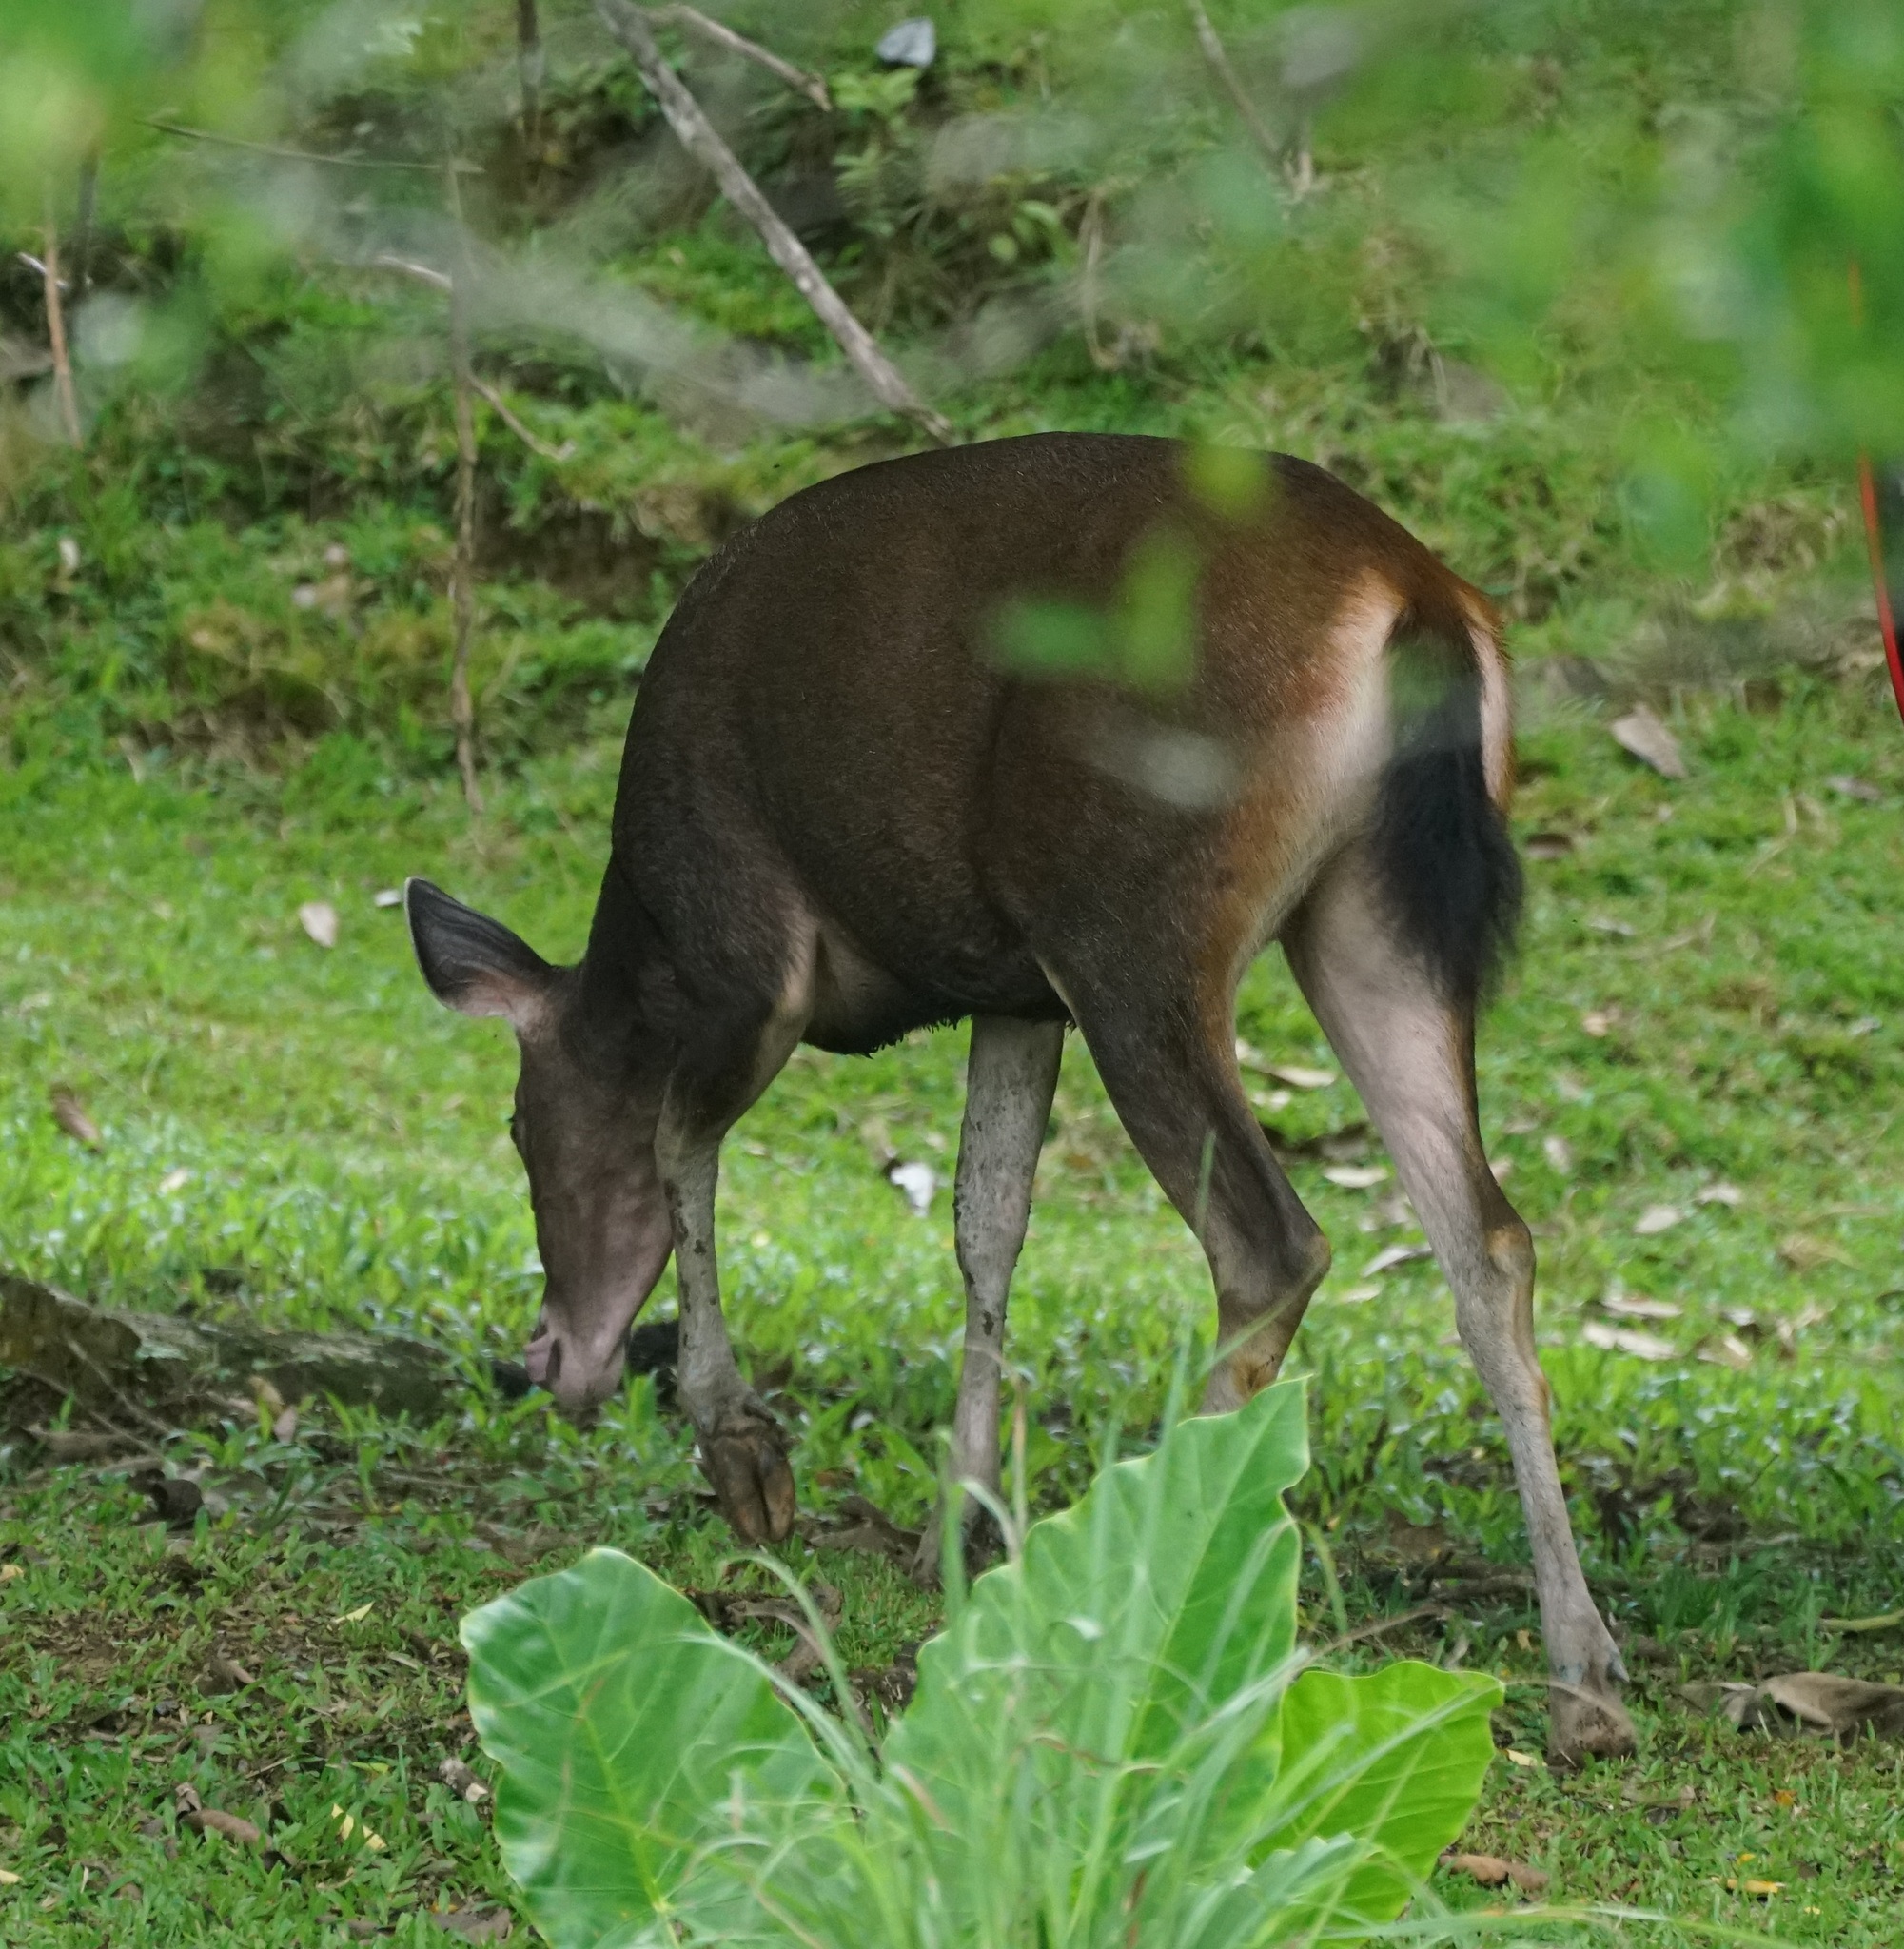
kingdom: Animalia
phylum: Chordata
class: Mammalia
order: Artiodactyla
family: Cervidae
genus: Rusa
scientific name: Rusa unicolor
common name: Sambar
